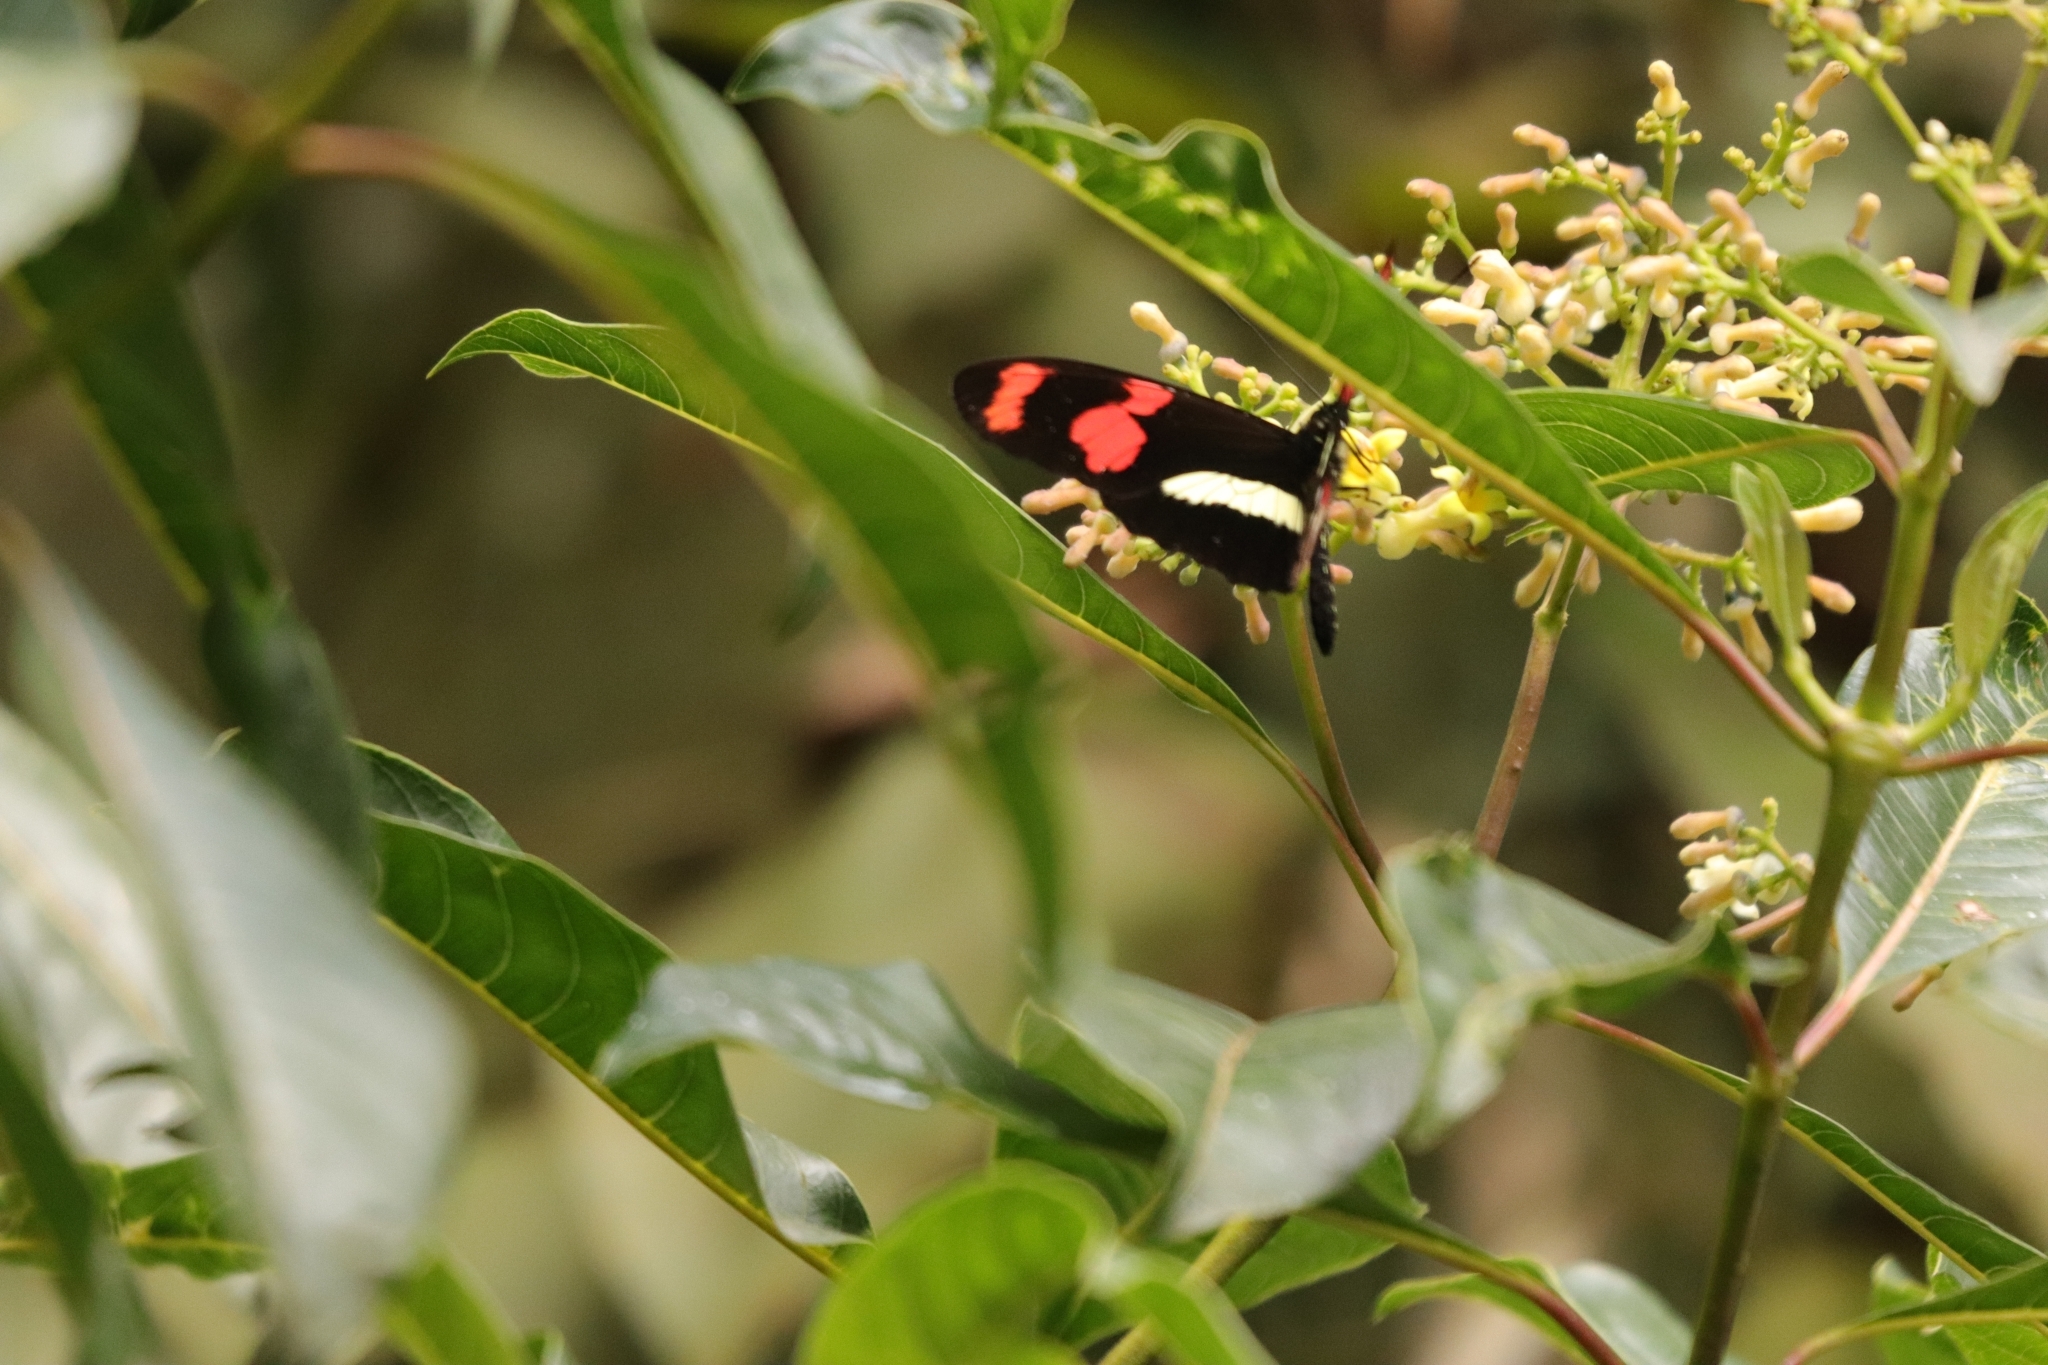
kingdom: Animalia
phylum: Arthropoda
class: Insecta
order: Lepidoptera
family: Nymphalidae
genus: Heliconius
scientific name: Heliconius telesiphe
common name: Telesiphe longwing
